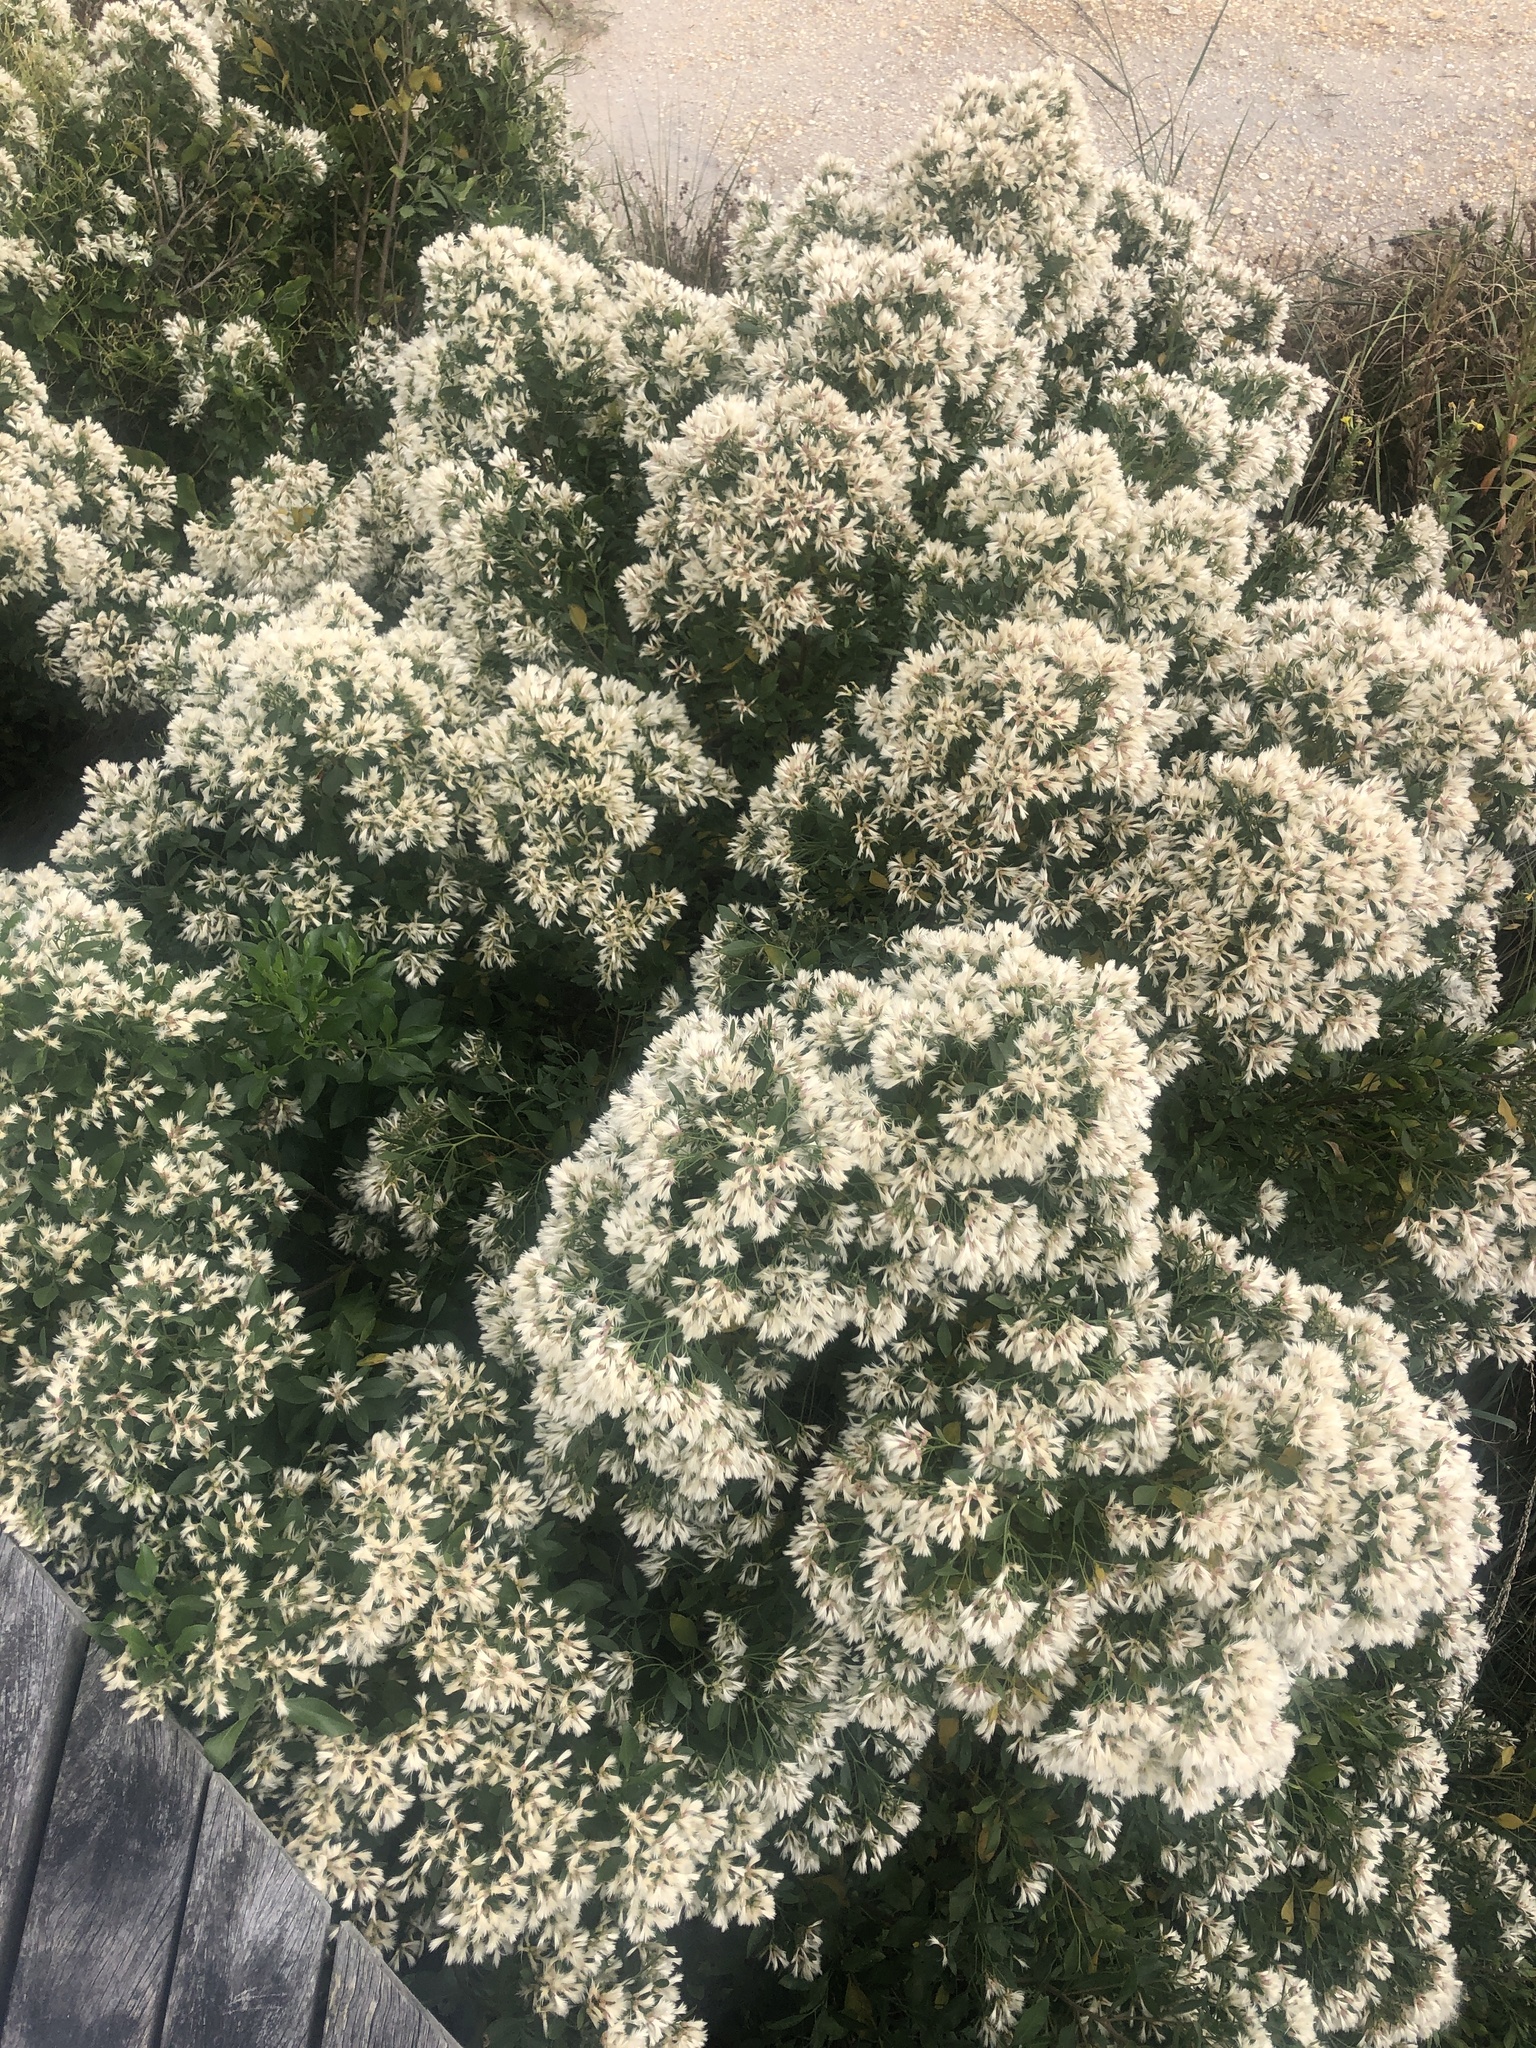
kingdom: Plantae
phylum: Tracheophyta
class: Magnoliopsida
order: Asterales
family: Asteraceae
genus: Baccharis
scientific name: Baccharis halimifolia
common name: Eastern baccharis
